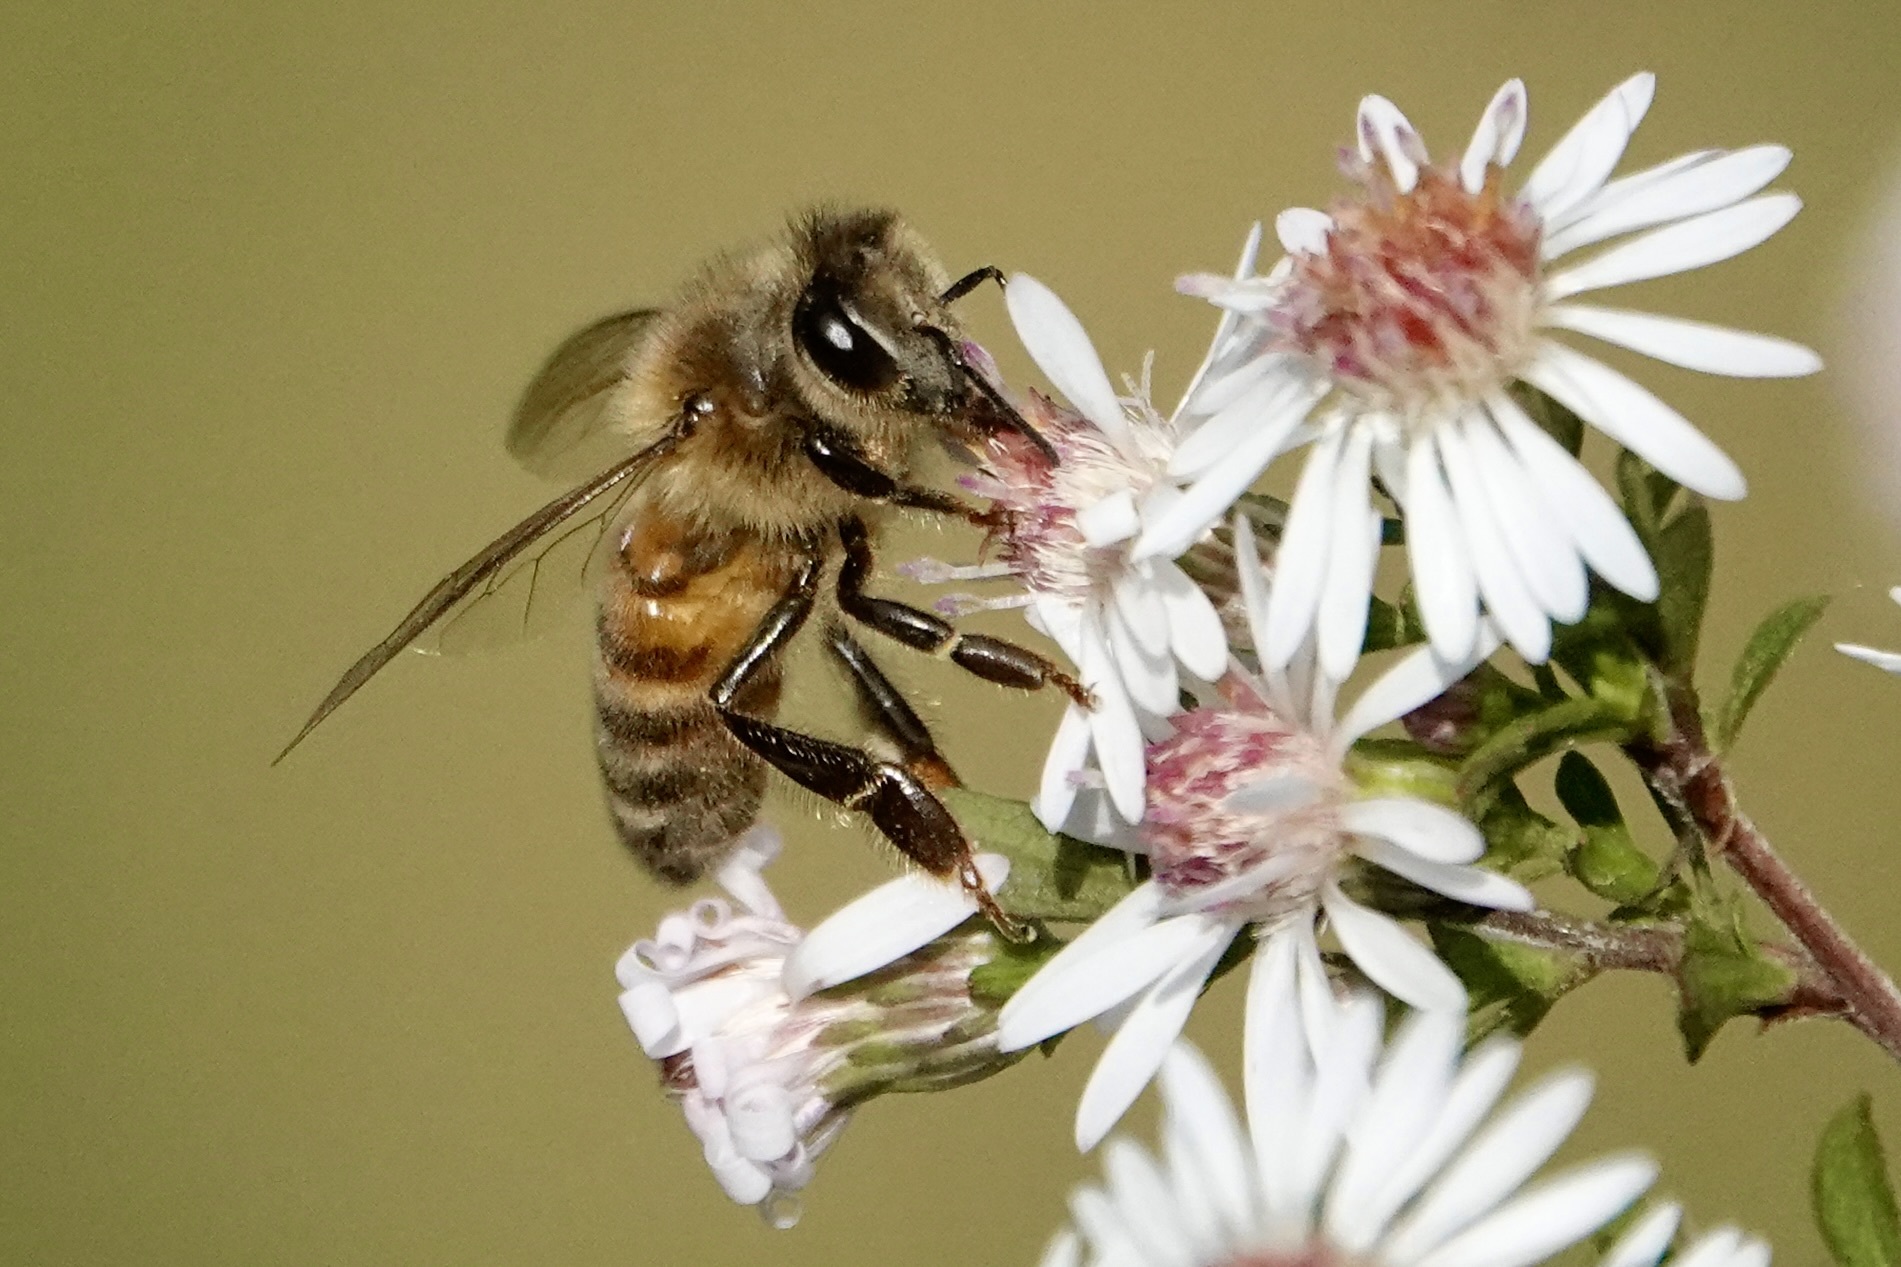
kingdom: Animalia
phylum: Arthropoda
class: Insecta
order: Hymenoptera
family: Apidae
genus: Apis
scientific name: Apis mellifera
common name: Honey bee
